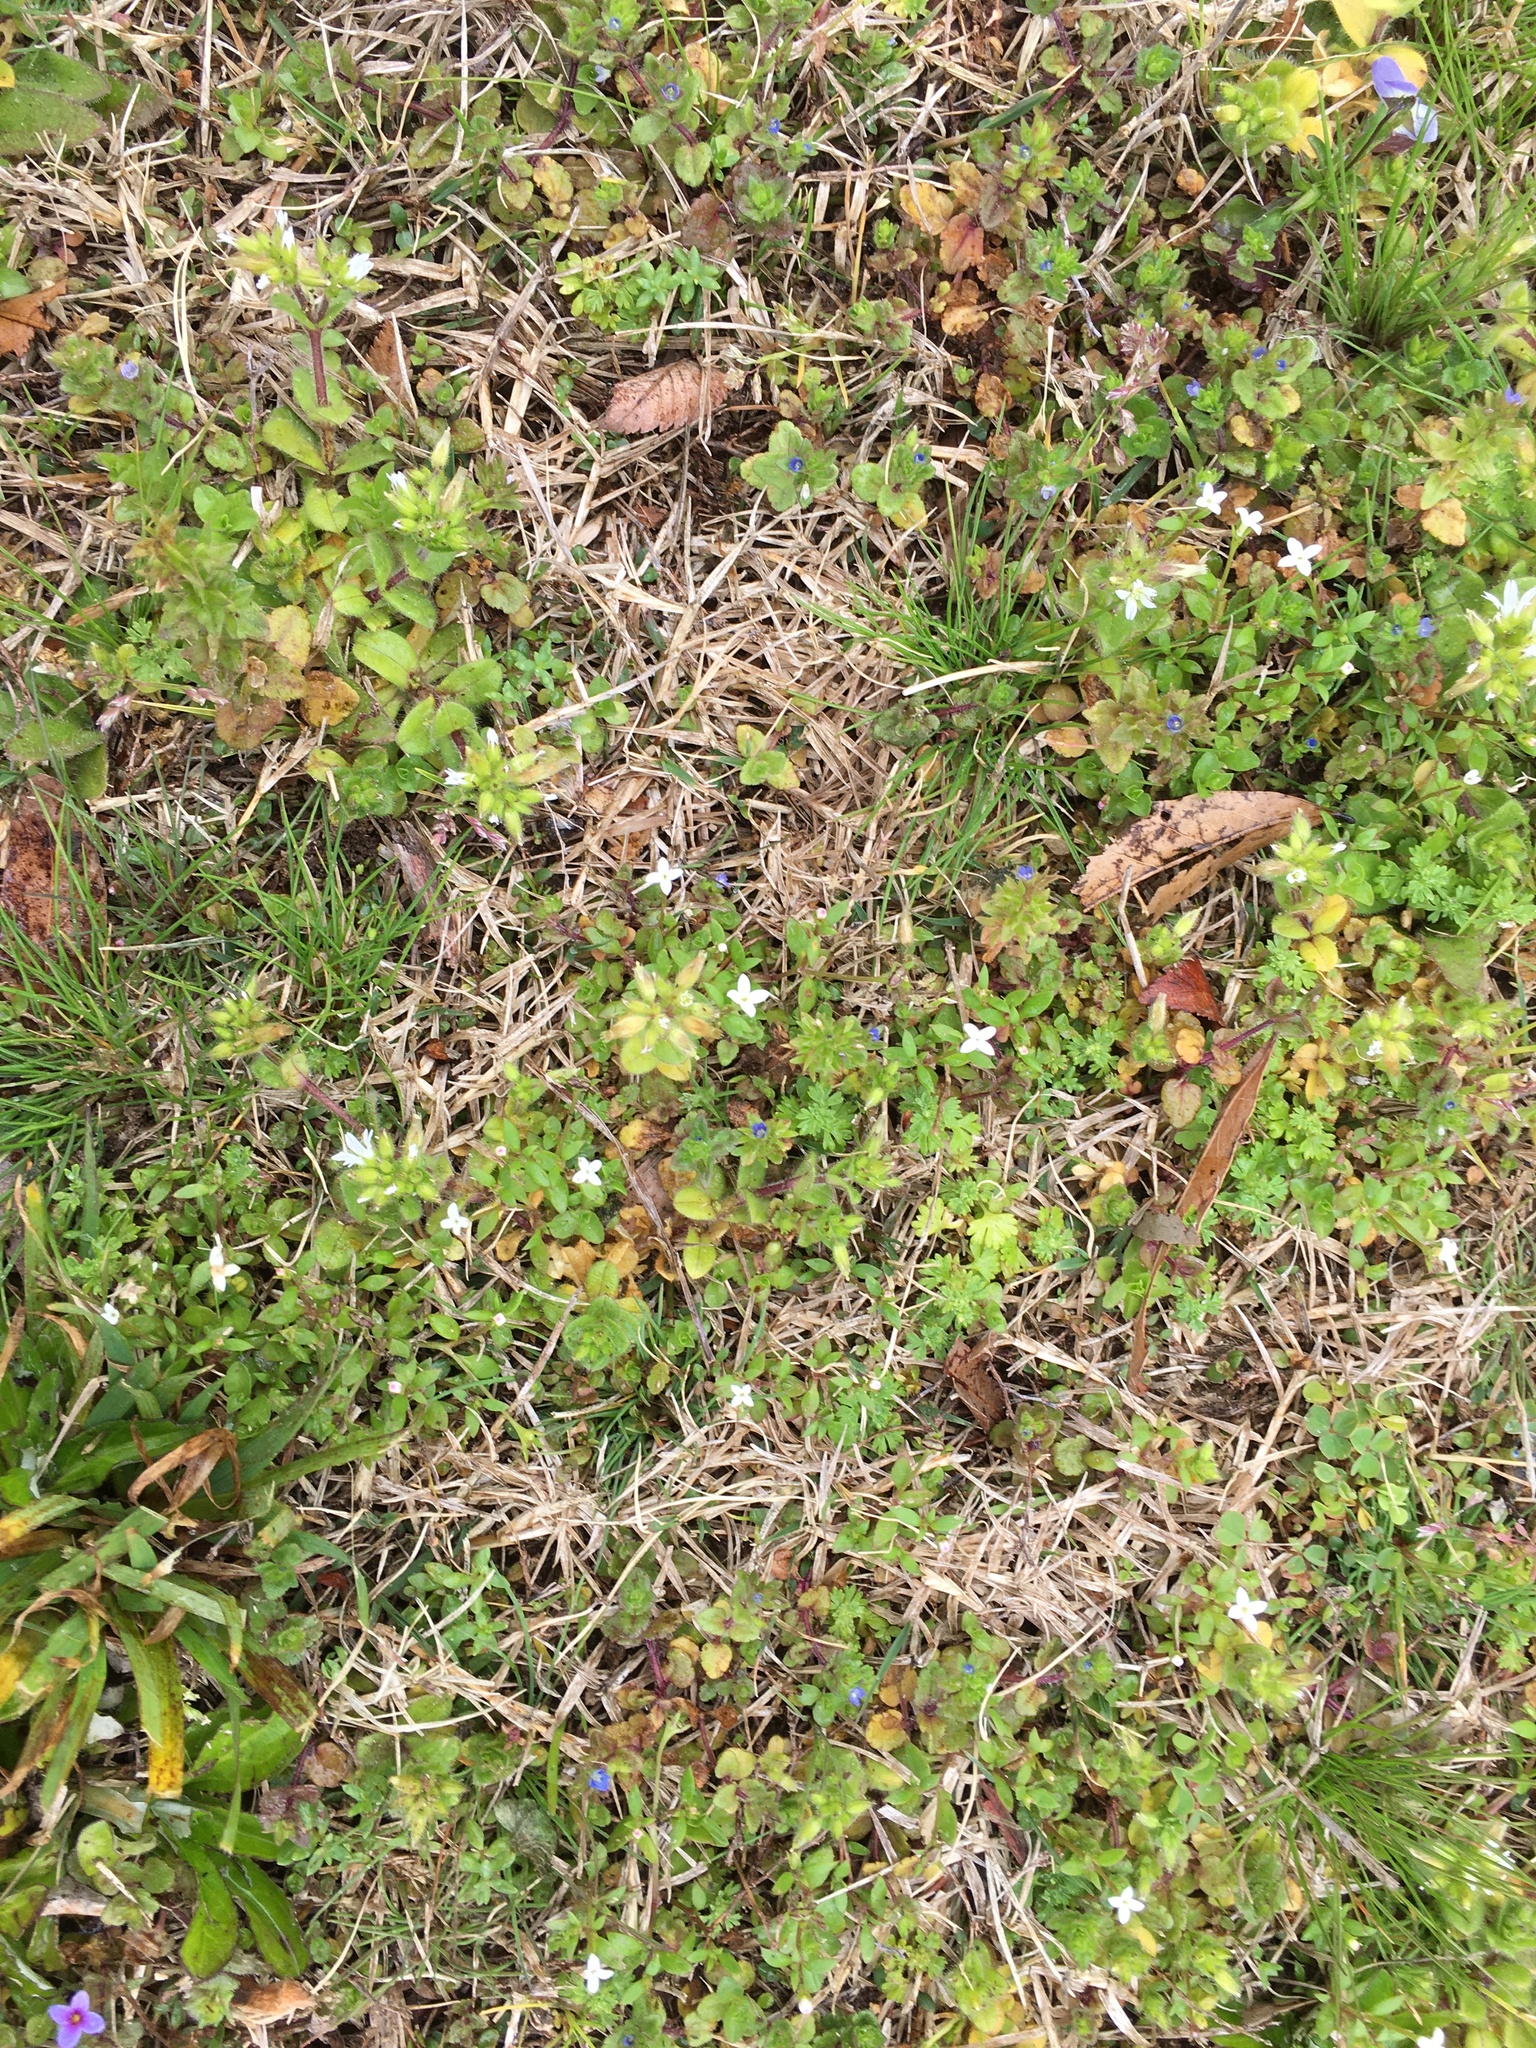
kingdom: Plantae
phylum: Tracheophyta
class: Magnoliopsida
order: Gentianales
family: Rubiaceae
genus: Houstonia
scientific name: Houstonia micrantha
